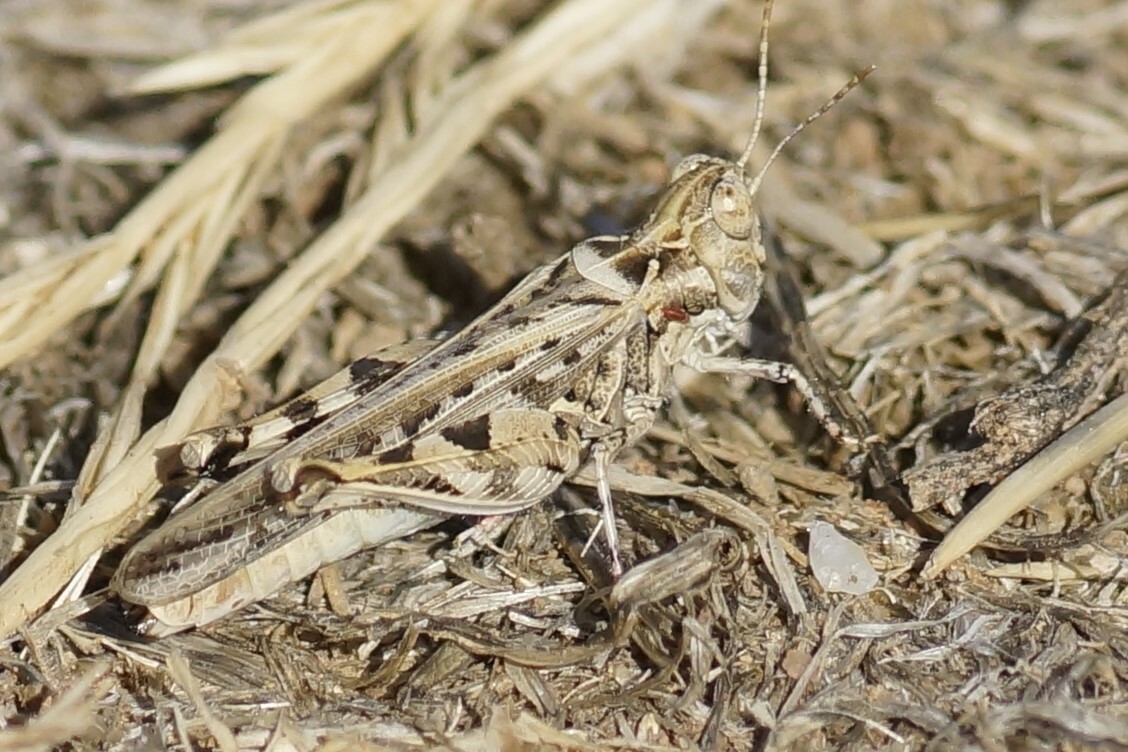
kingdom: Animalia
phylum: Arthropoda
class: Insecta
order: Orthoptera
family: Acrididae
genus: Chortoicetes
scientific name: Chortoicetes terminifera
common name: Australian plague locust
